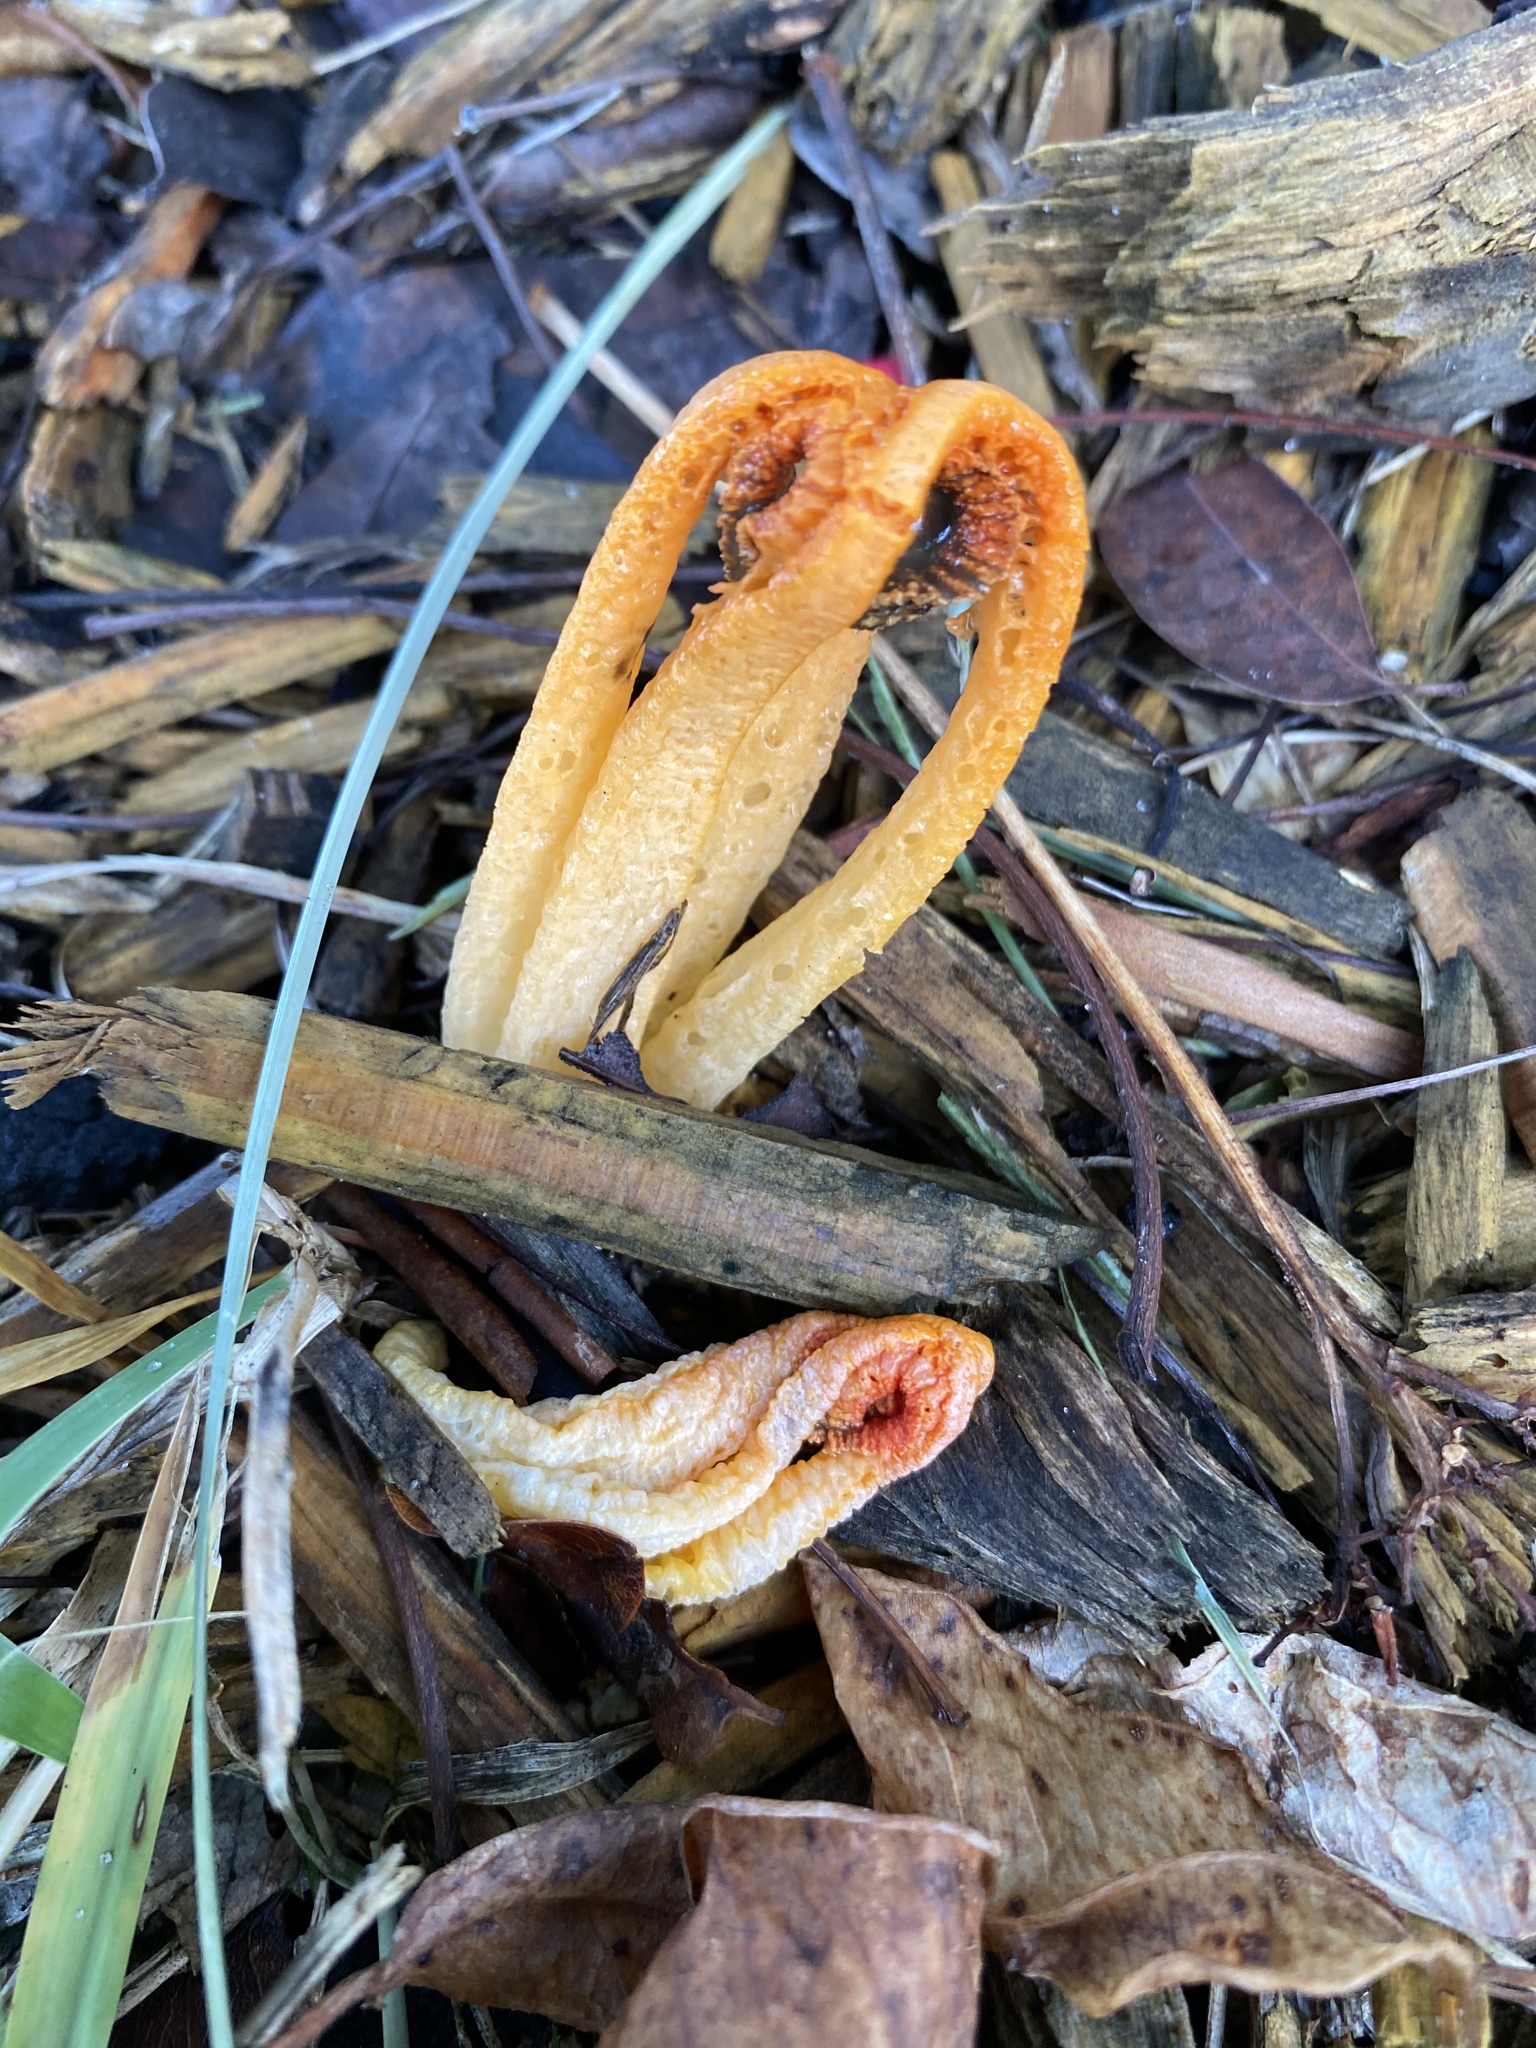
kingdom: Fungi
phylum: Basidiomycota
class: Agaricomycetes
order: Phallales
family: Phallaceae
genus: Laternea
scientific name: Laternea dringii
